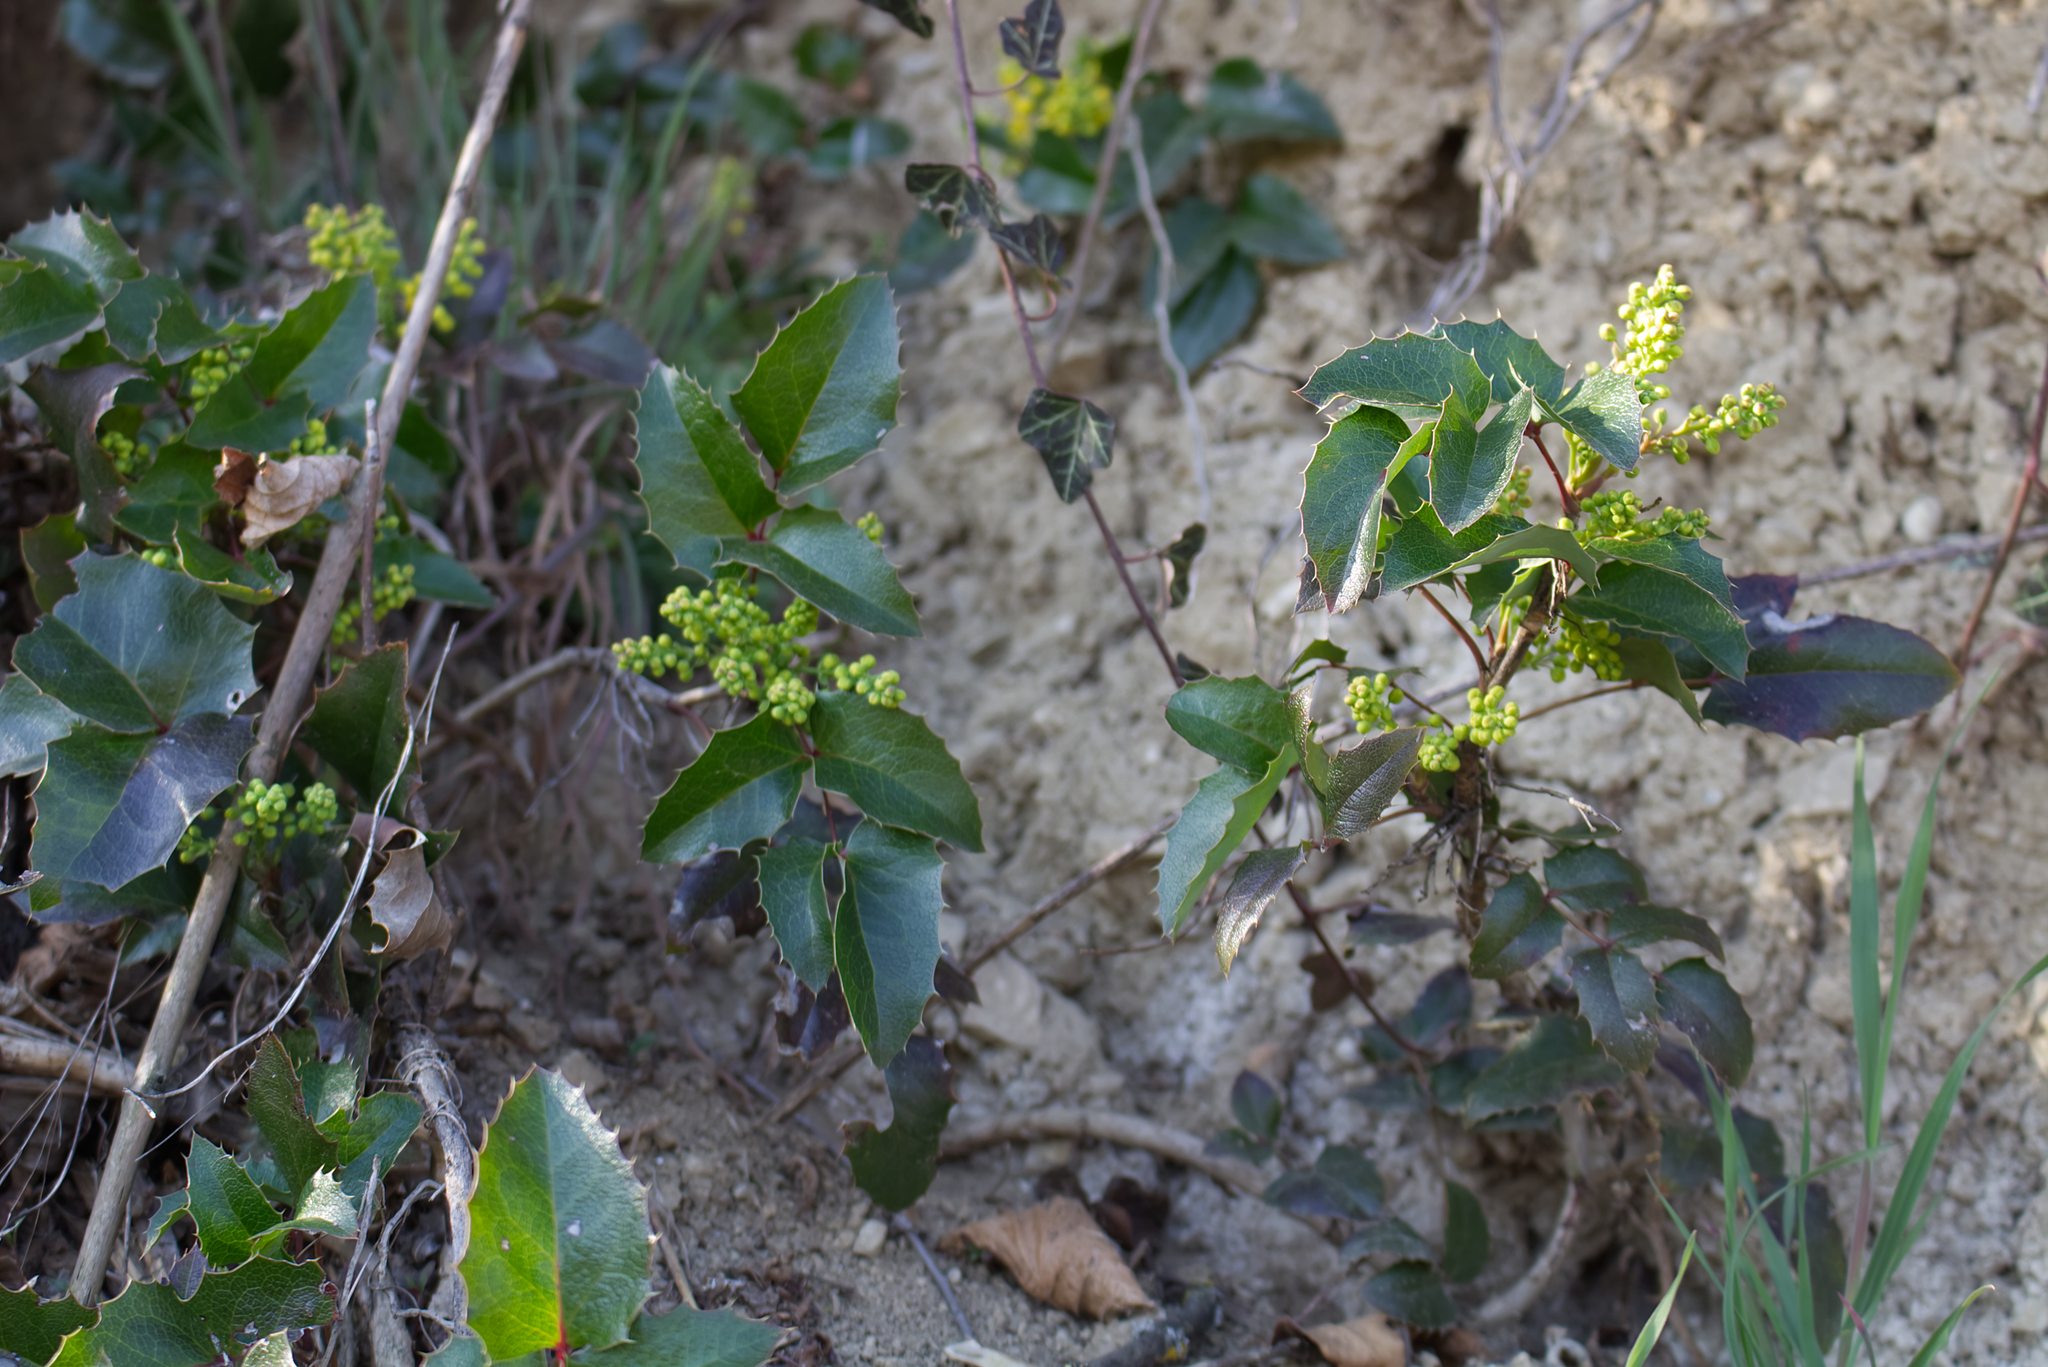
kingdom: Plantae
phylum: Tracheophyta
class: Magnoliopsida
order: Ranunculales
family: Berberidaceae
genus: Mahonia
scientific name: Mahonia aquifolium
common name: Oregon-grape
